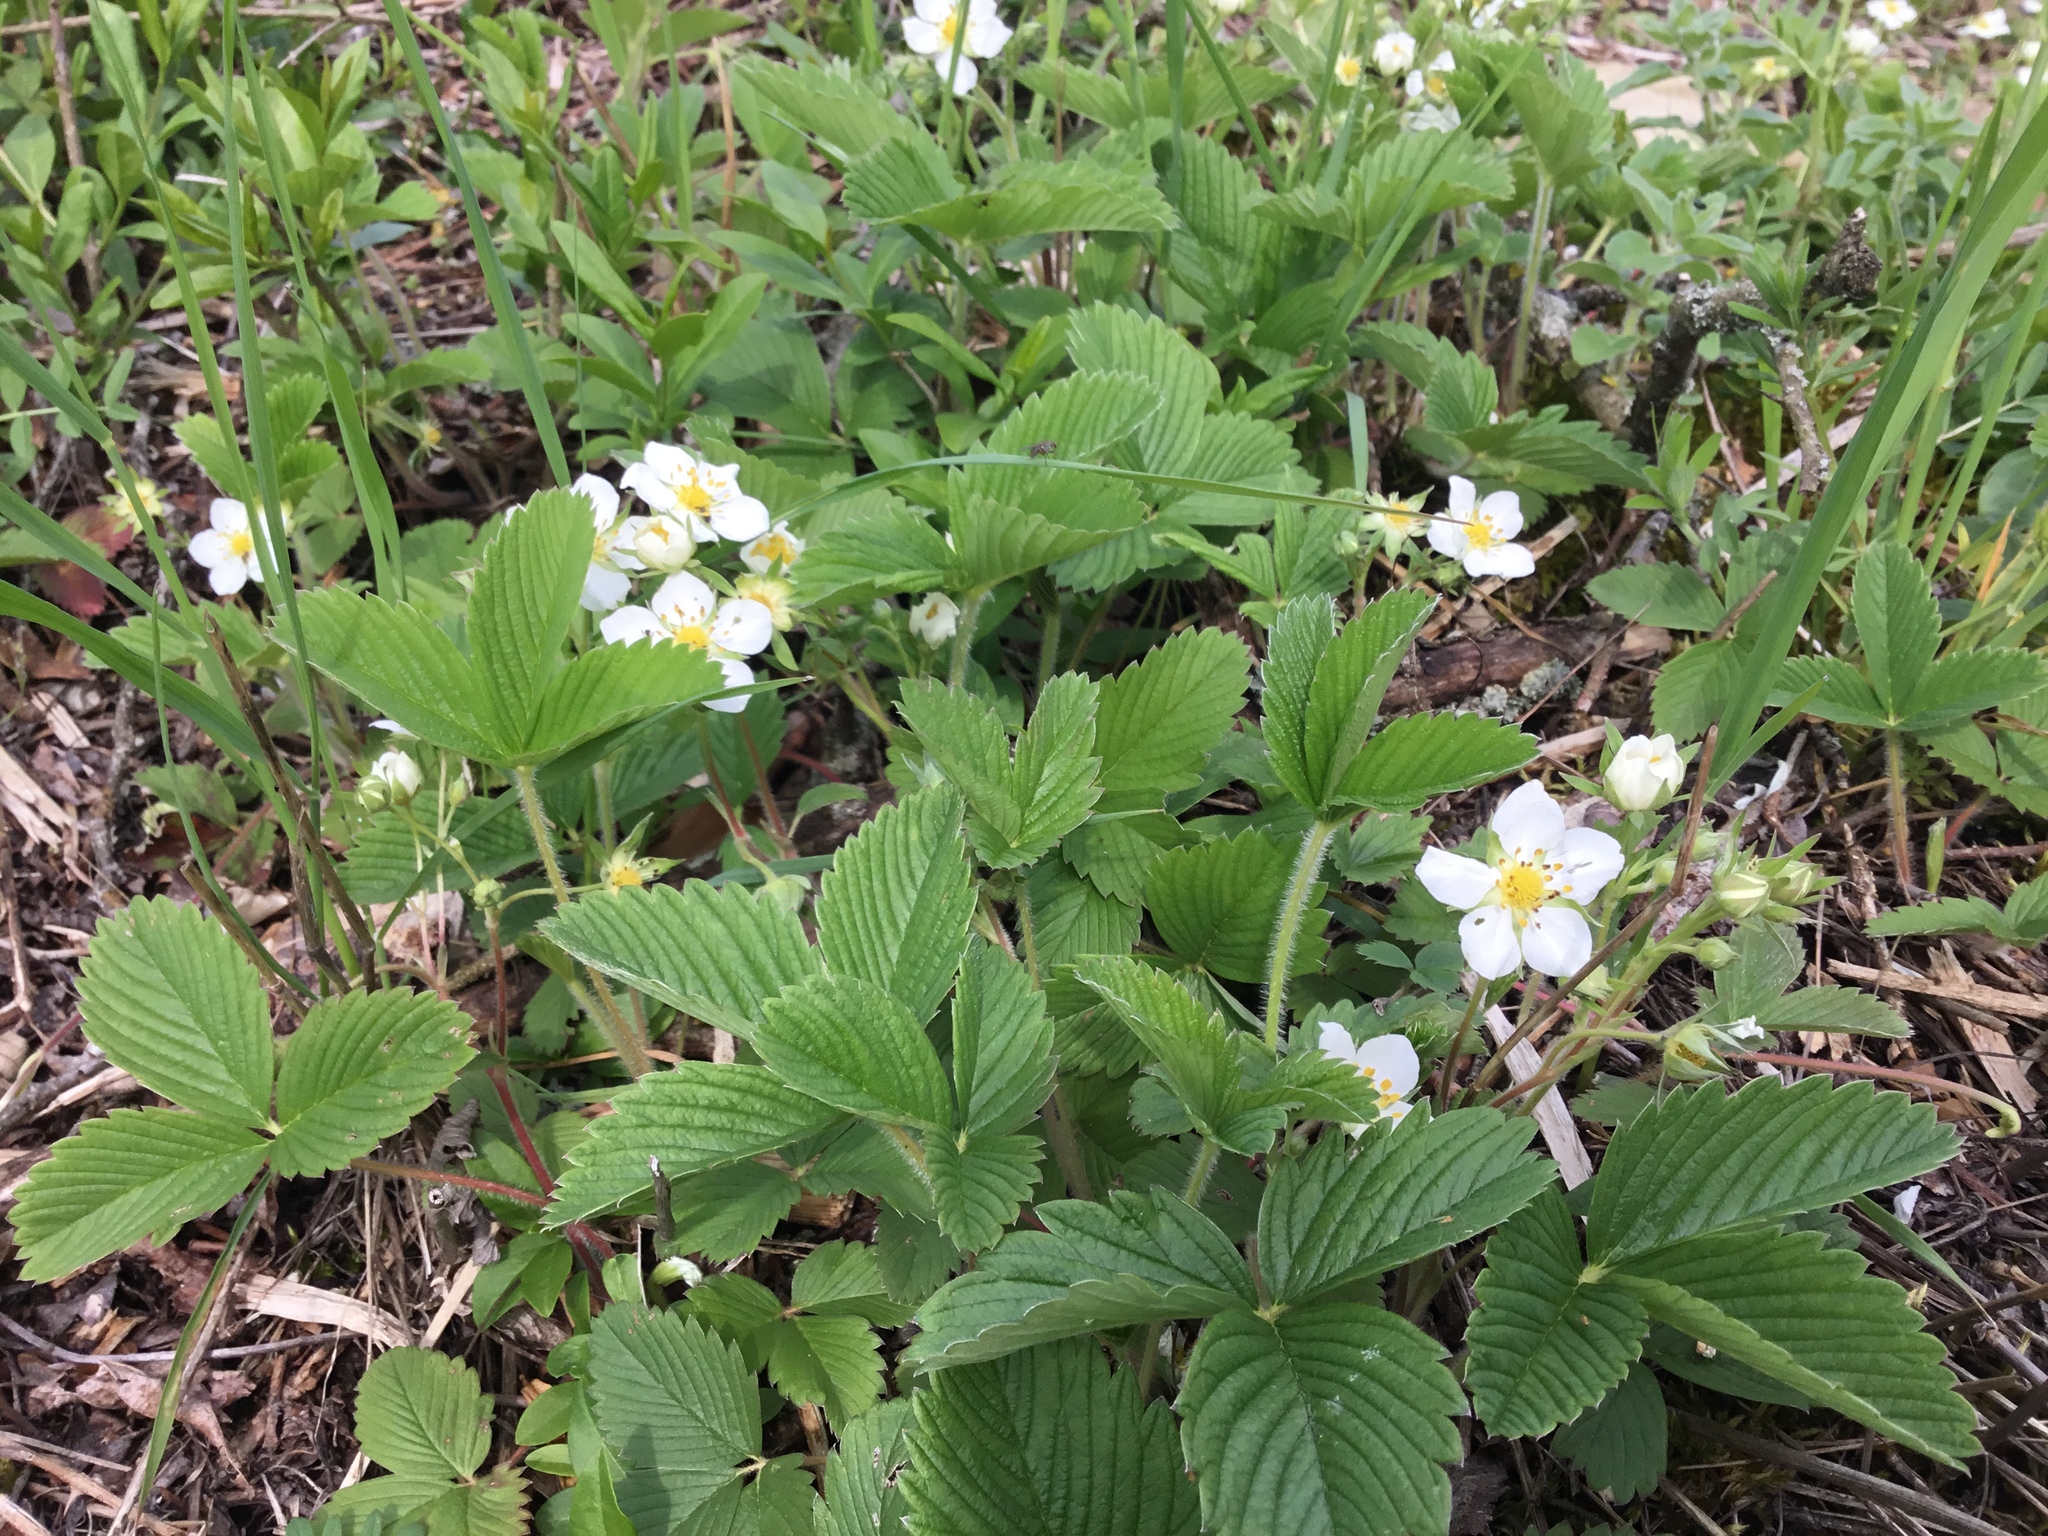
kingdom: Plantae
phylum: Tracheophyta
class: Magnoliopsida
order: Rosales
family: Rosaceae
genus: Fragaria
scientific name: Fragaria vesca
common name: Wild strawberry
